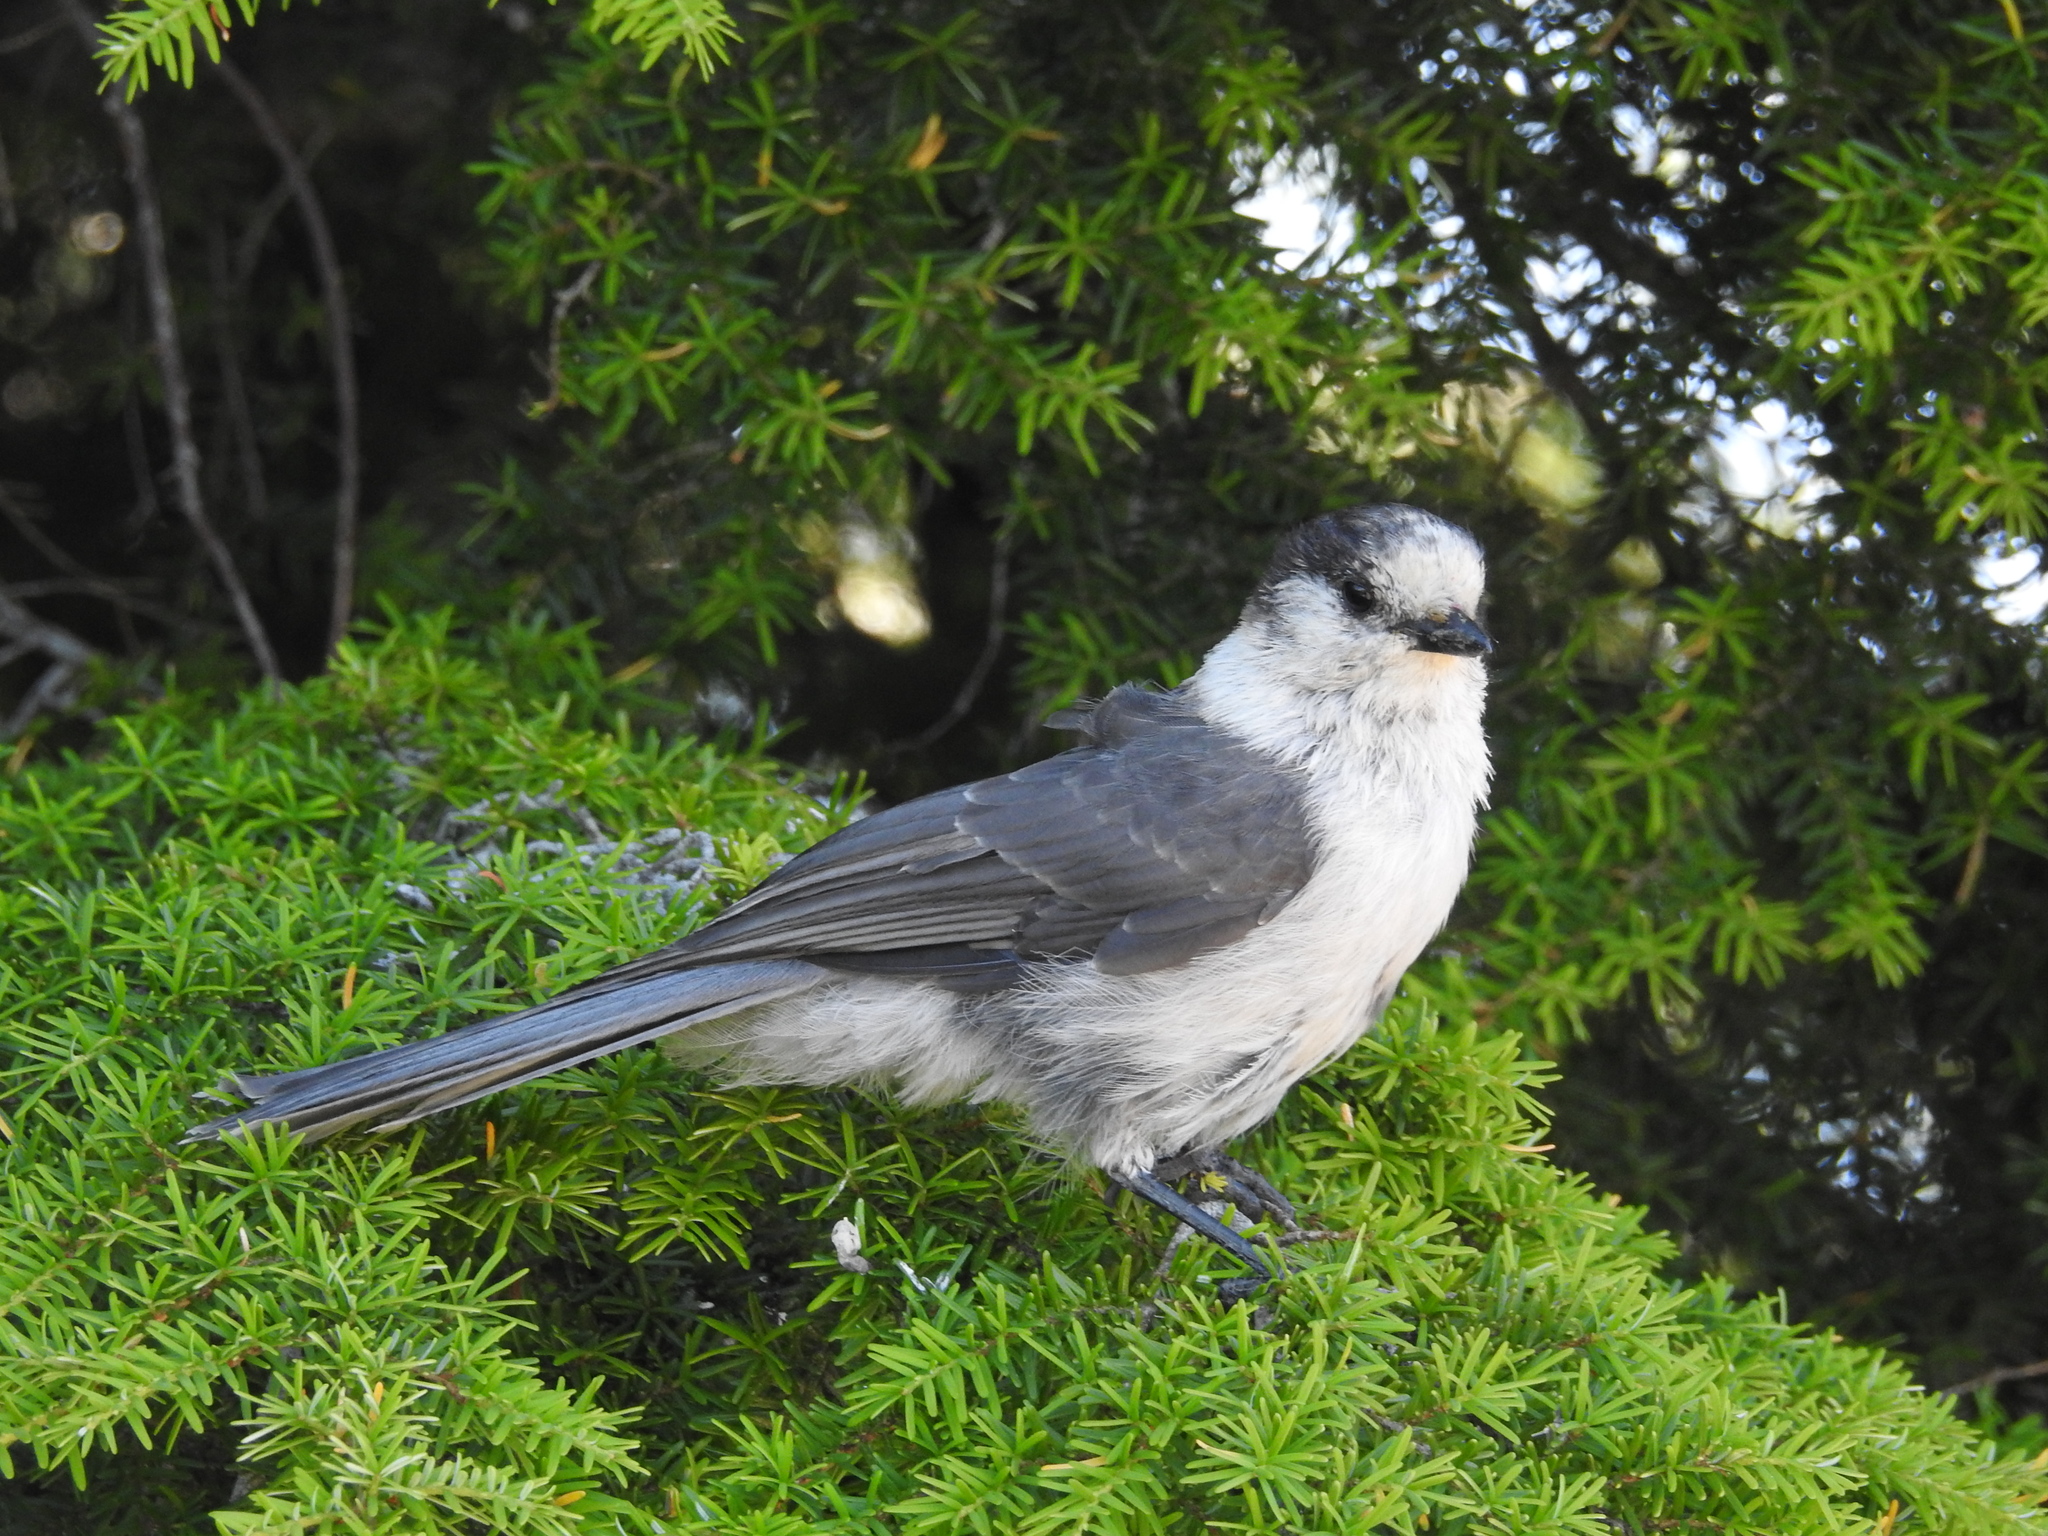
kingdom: Animalia
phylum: Chordata
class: Aves
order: Passeriformes
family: Corvidae
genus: Perisoreus
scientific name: Perisoreus canadensis
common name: Gray jay
